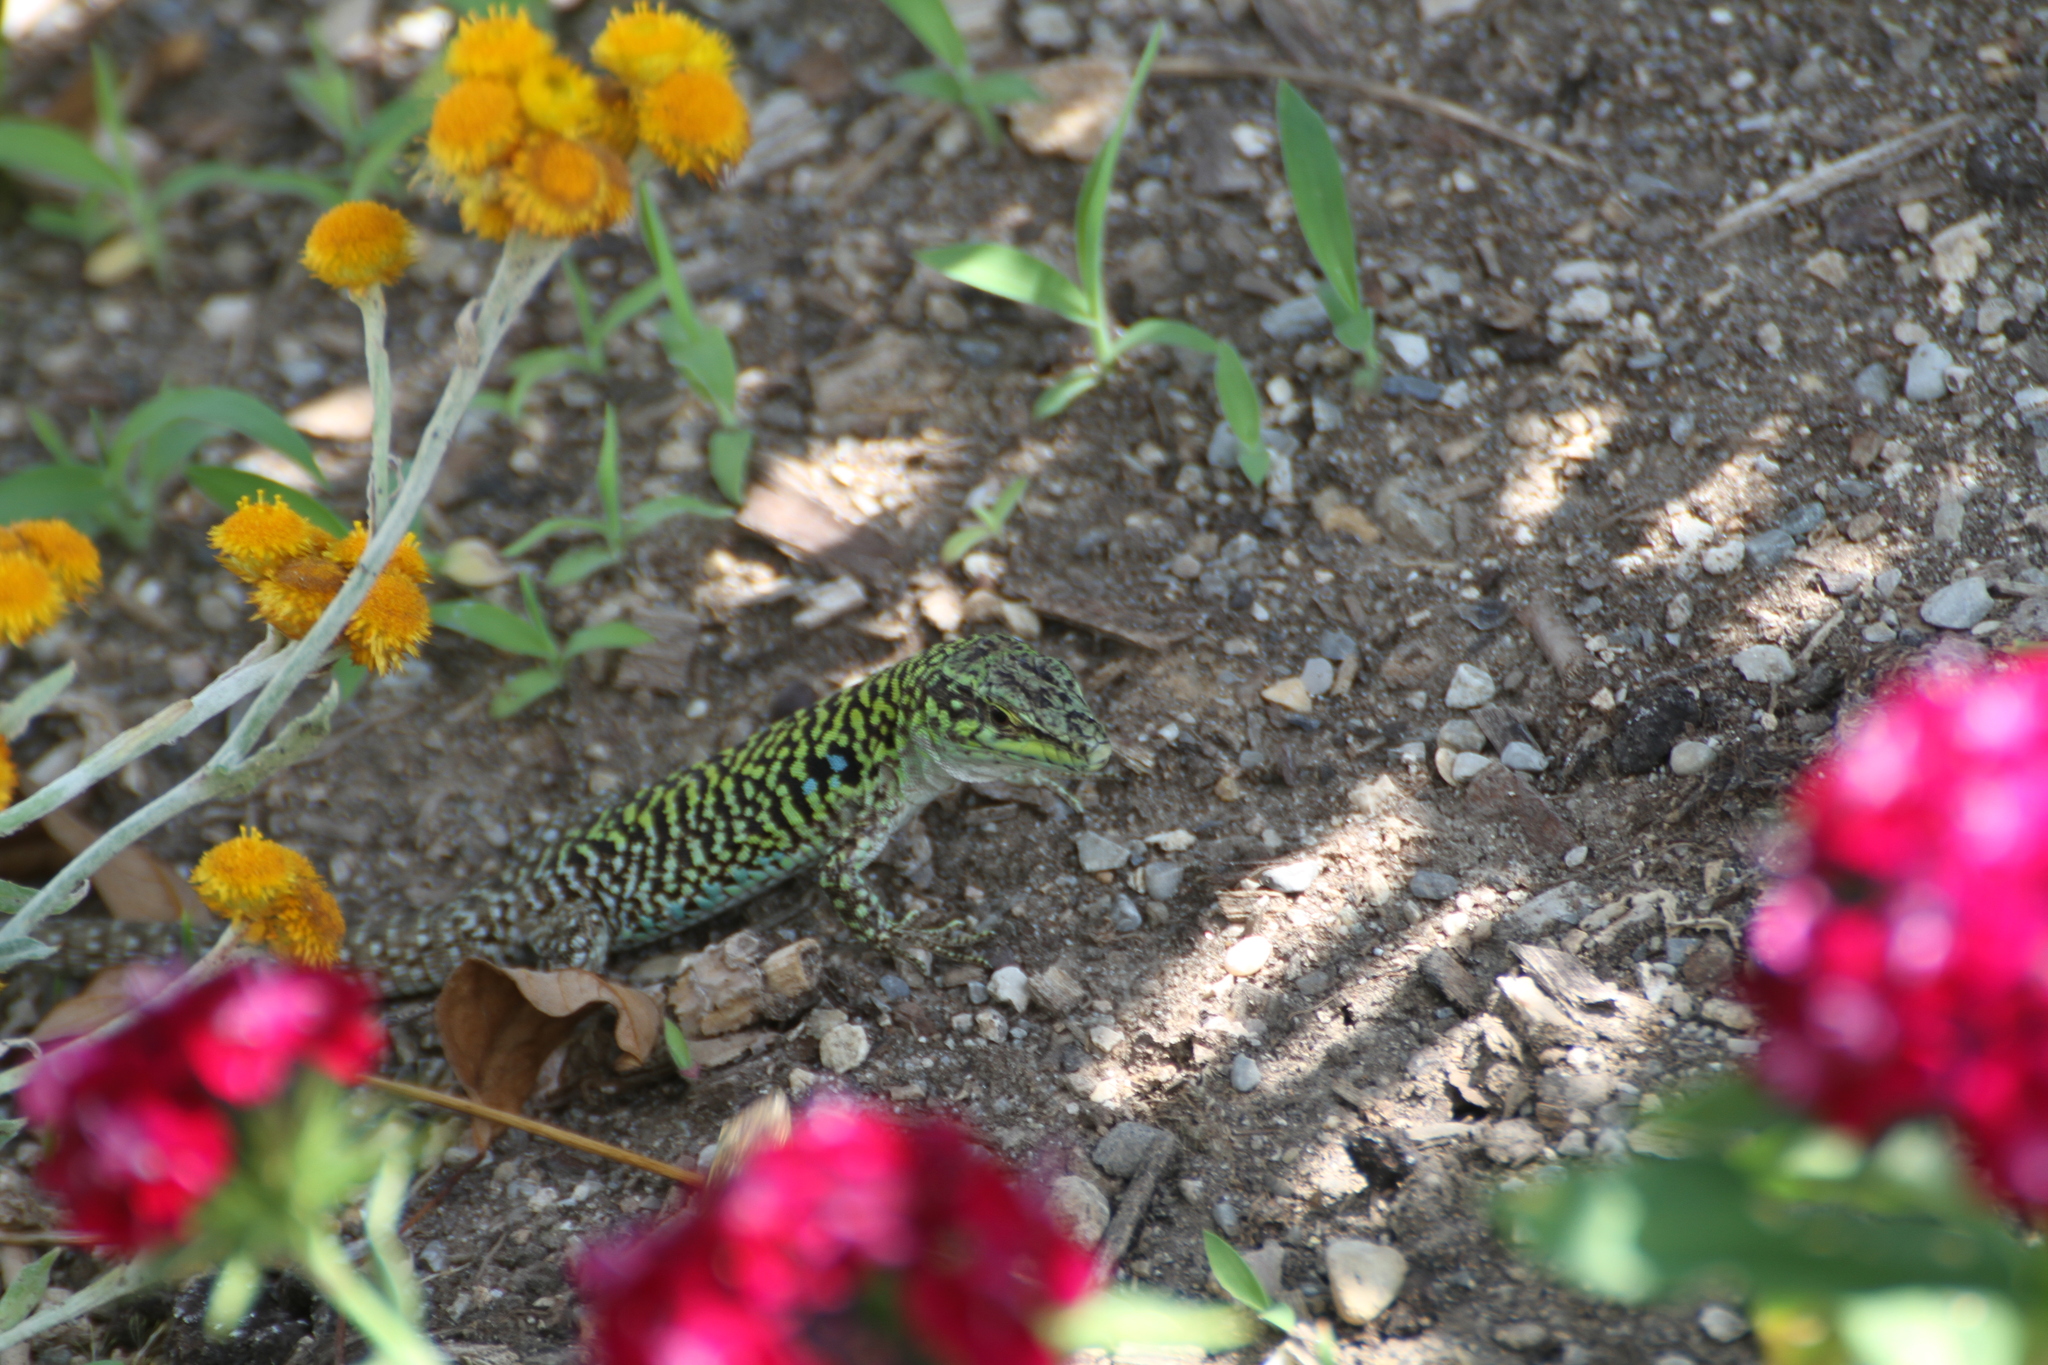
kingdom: Animalia
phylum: Chordata
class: Squamata
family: Lacertidae
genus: Podarcis
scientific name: Podarcis siculus
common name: Italian wall lizard
